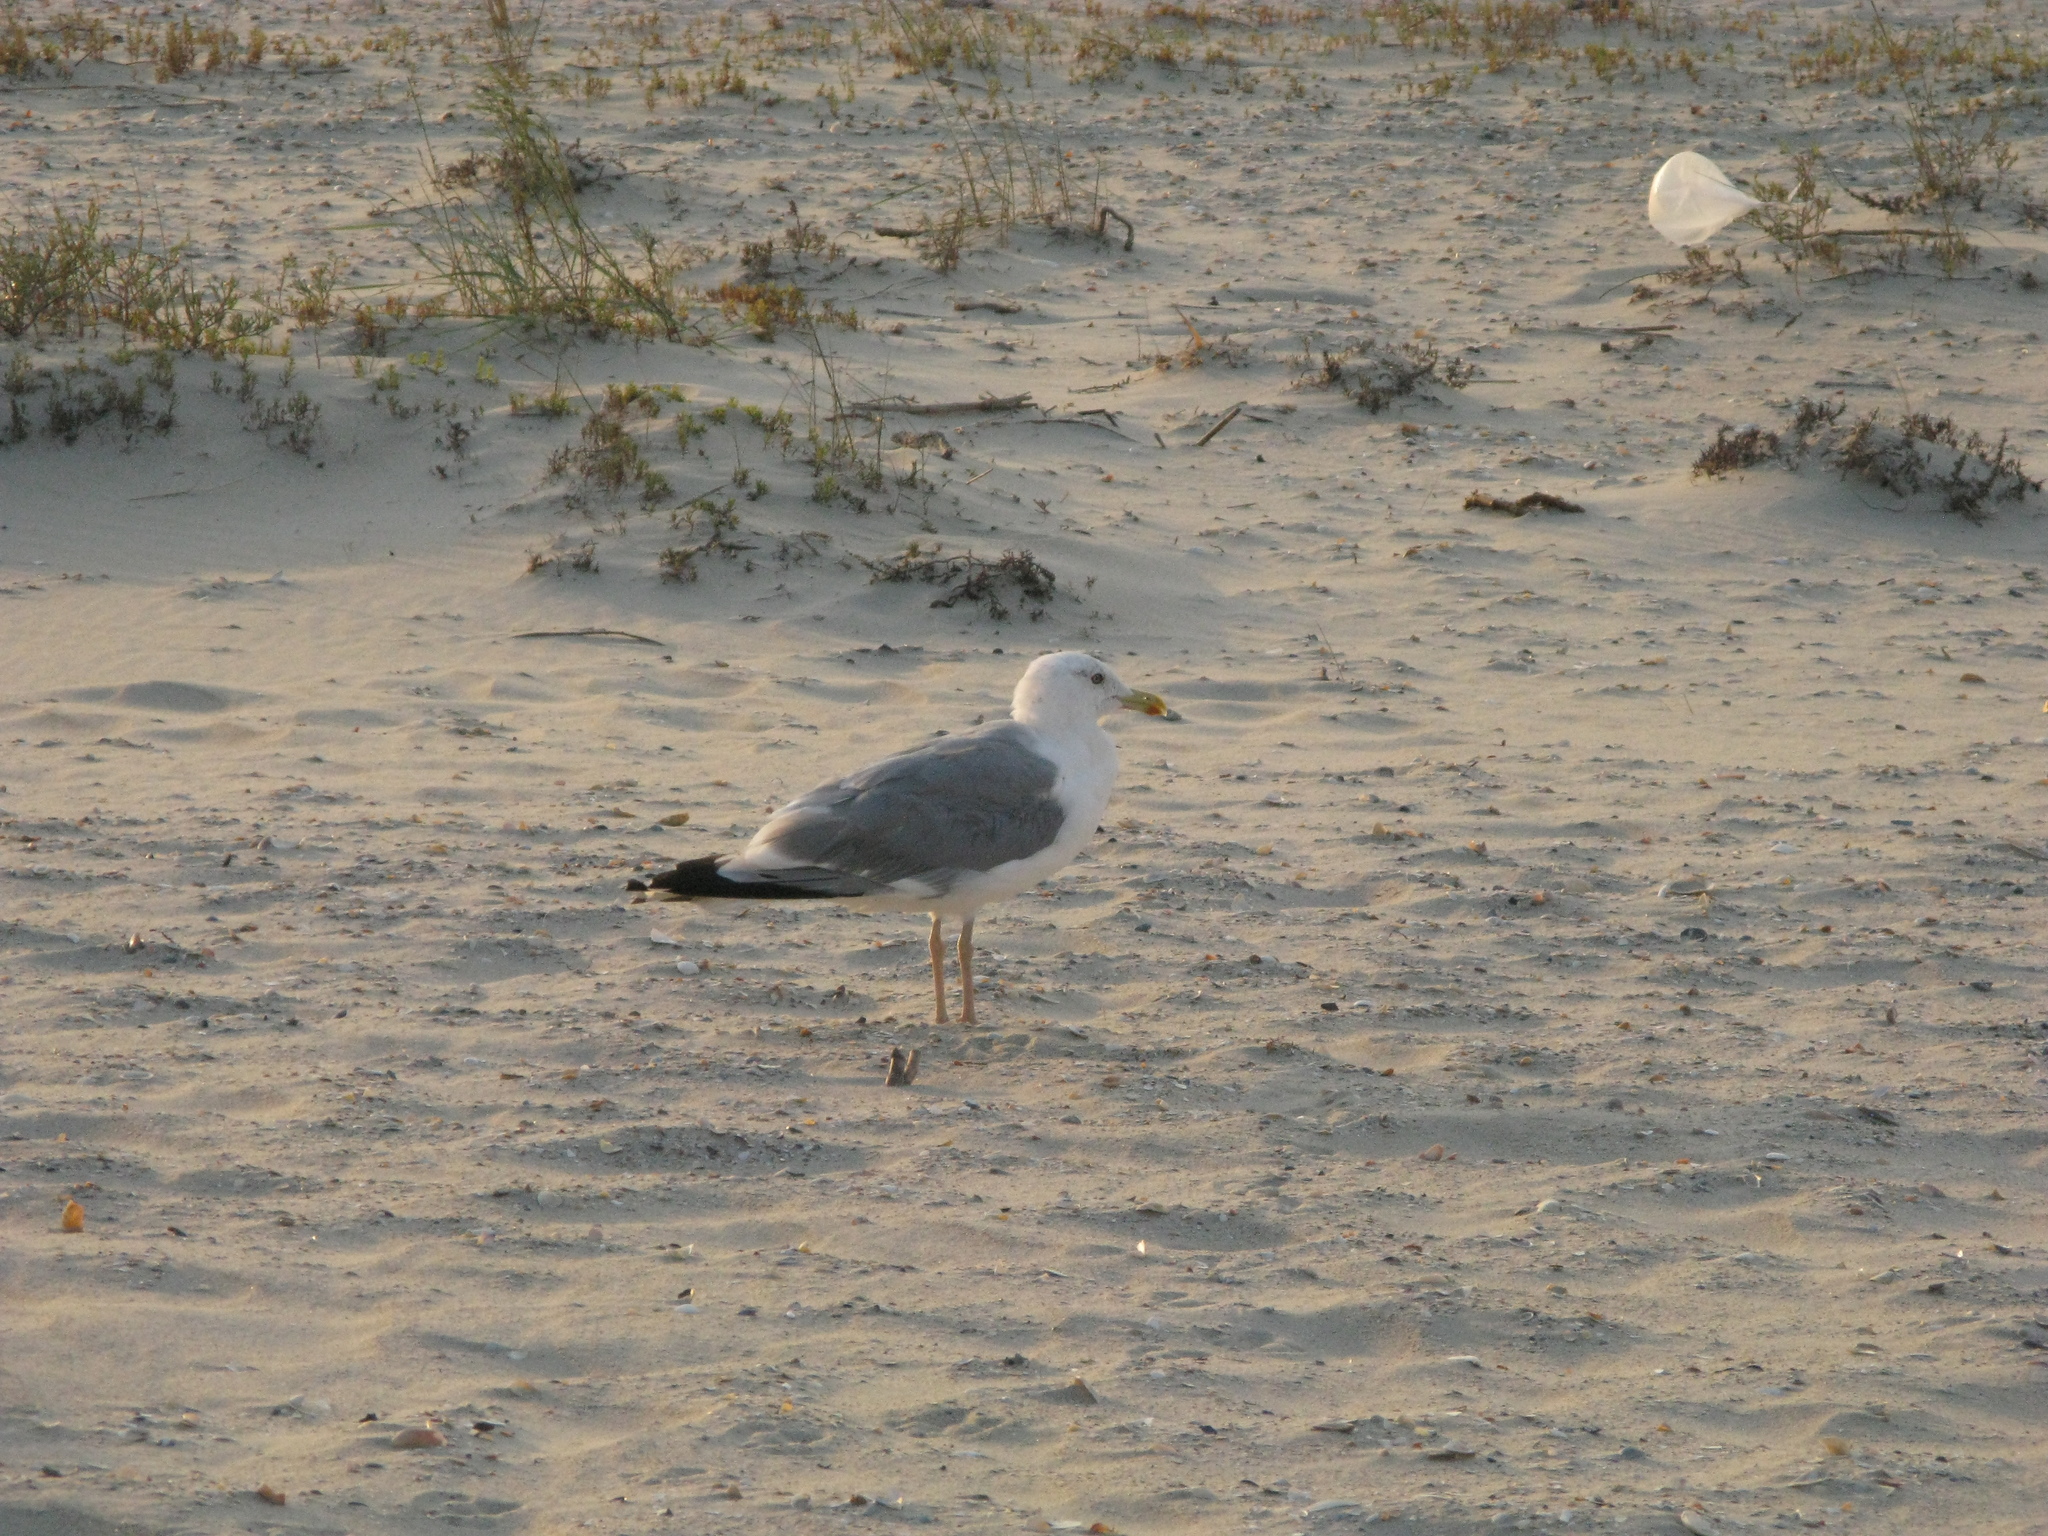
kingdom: Animalia
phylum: Chordata
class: Aves
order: Charadriiformes
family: Laridae
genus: Larus
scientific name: Larus michahellis
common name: Yellow-legged gull
